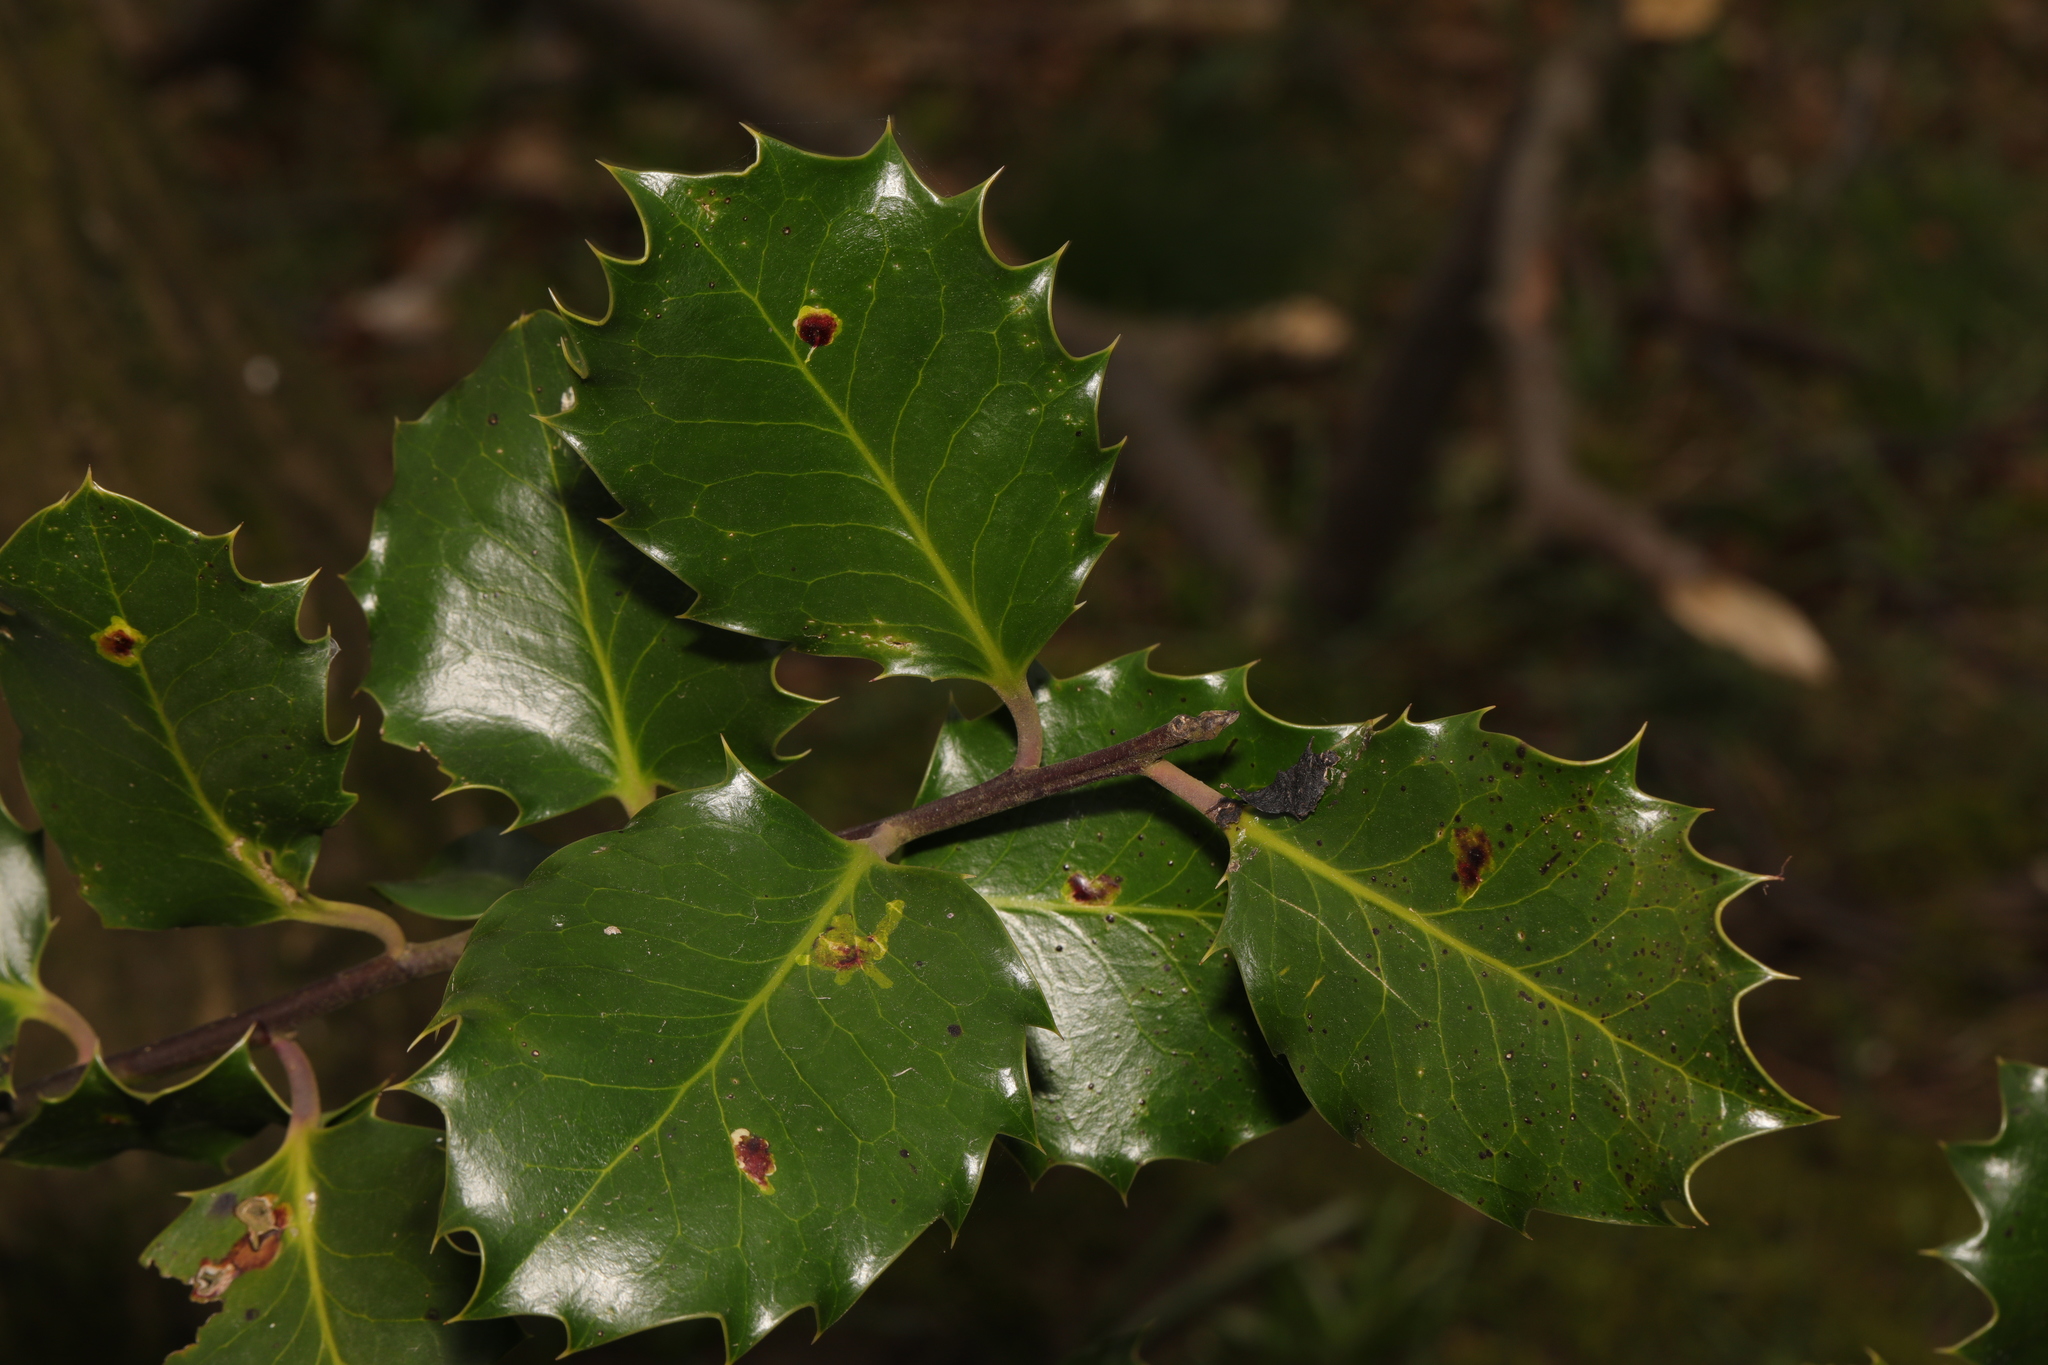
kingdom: Plantae
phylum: Tracheophyta
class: Magnoliopsida
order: Aquifoliales
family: Aquifoliaceae
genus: Ilex
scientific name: Ilex aquifolium
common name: English holly
